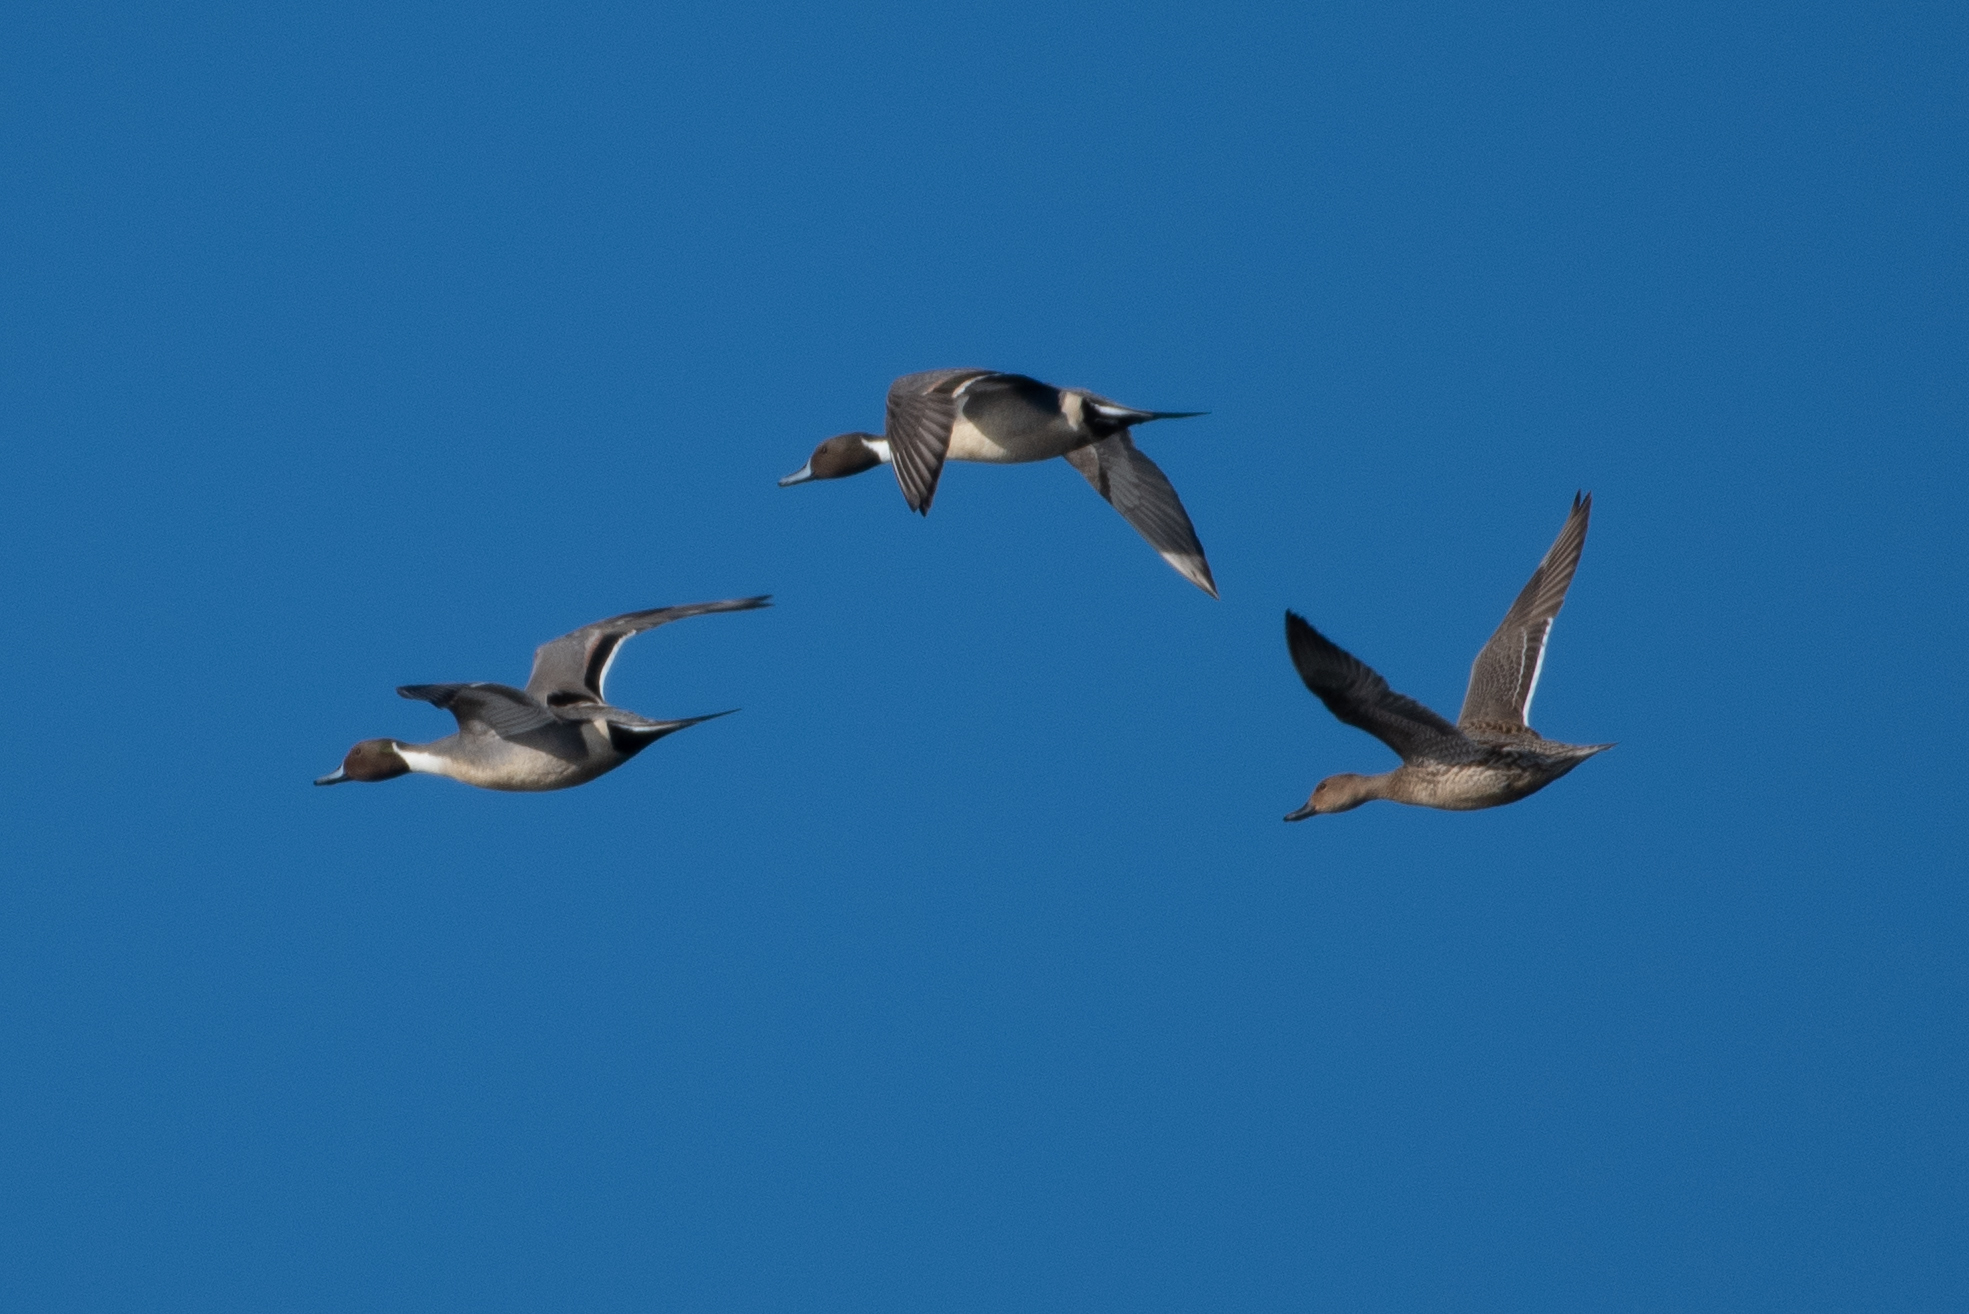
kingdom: Animalia
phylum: Chordata
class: Aves
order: Anseriformes
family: Anatidae
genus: Anas
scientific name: Anas acuta
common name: Northern pintail
